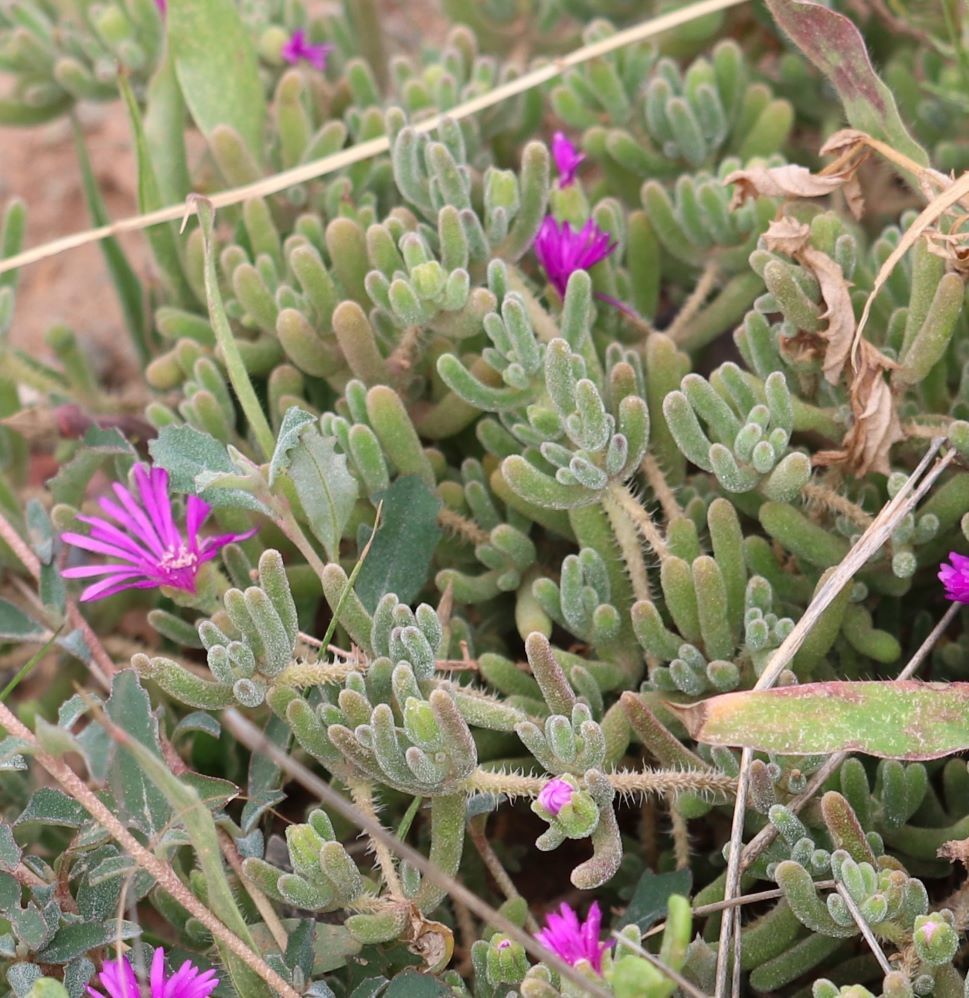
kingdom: Plantae
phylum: Tracheophyta
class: Magnoliopsida
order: Caryophyllales
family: Aizoaceae
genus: Drosanthemum
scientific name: Drosanthemum hispidum
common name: Hairy dewflower
